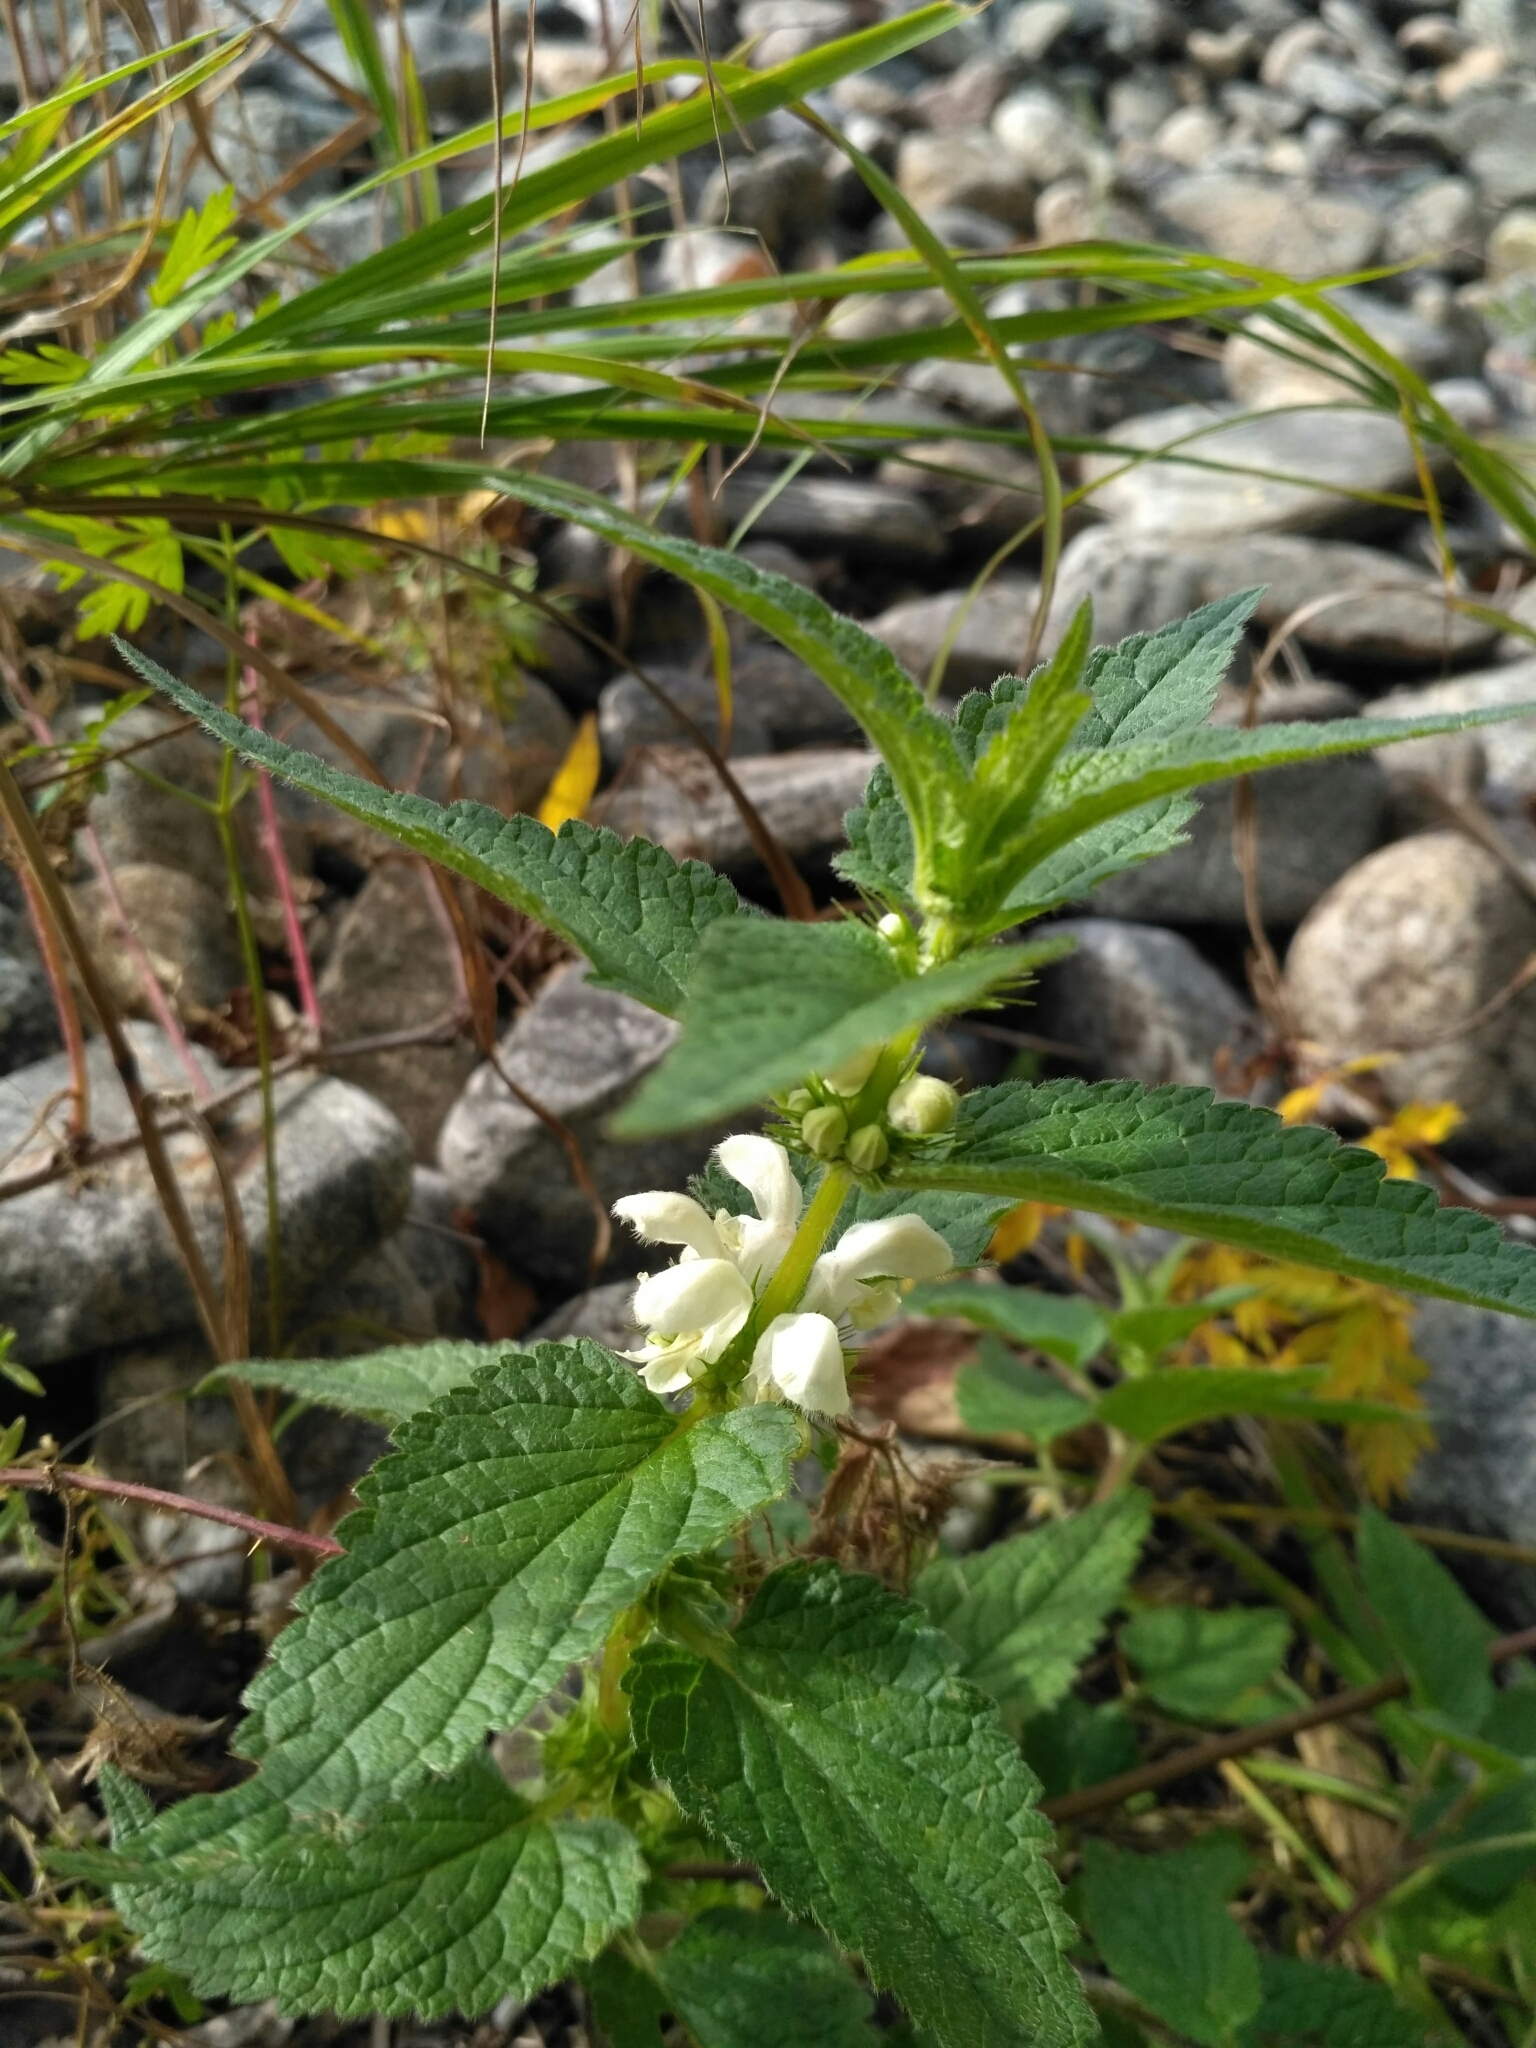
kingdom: Plantae
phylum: Tracheophyta
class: Magnoliopsida
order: Lamiales
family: Lamiaceae
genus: Lamium
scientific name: Lamium album
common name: White dead-nettle
